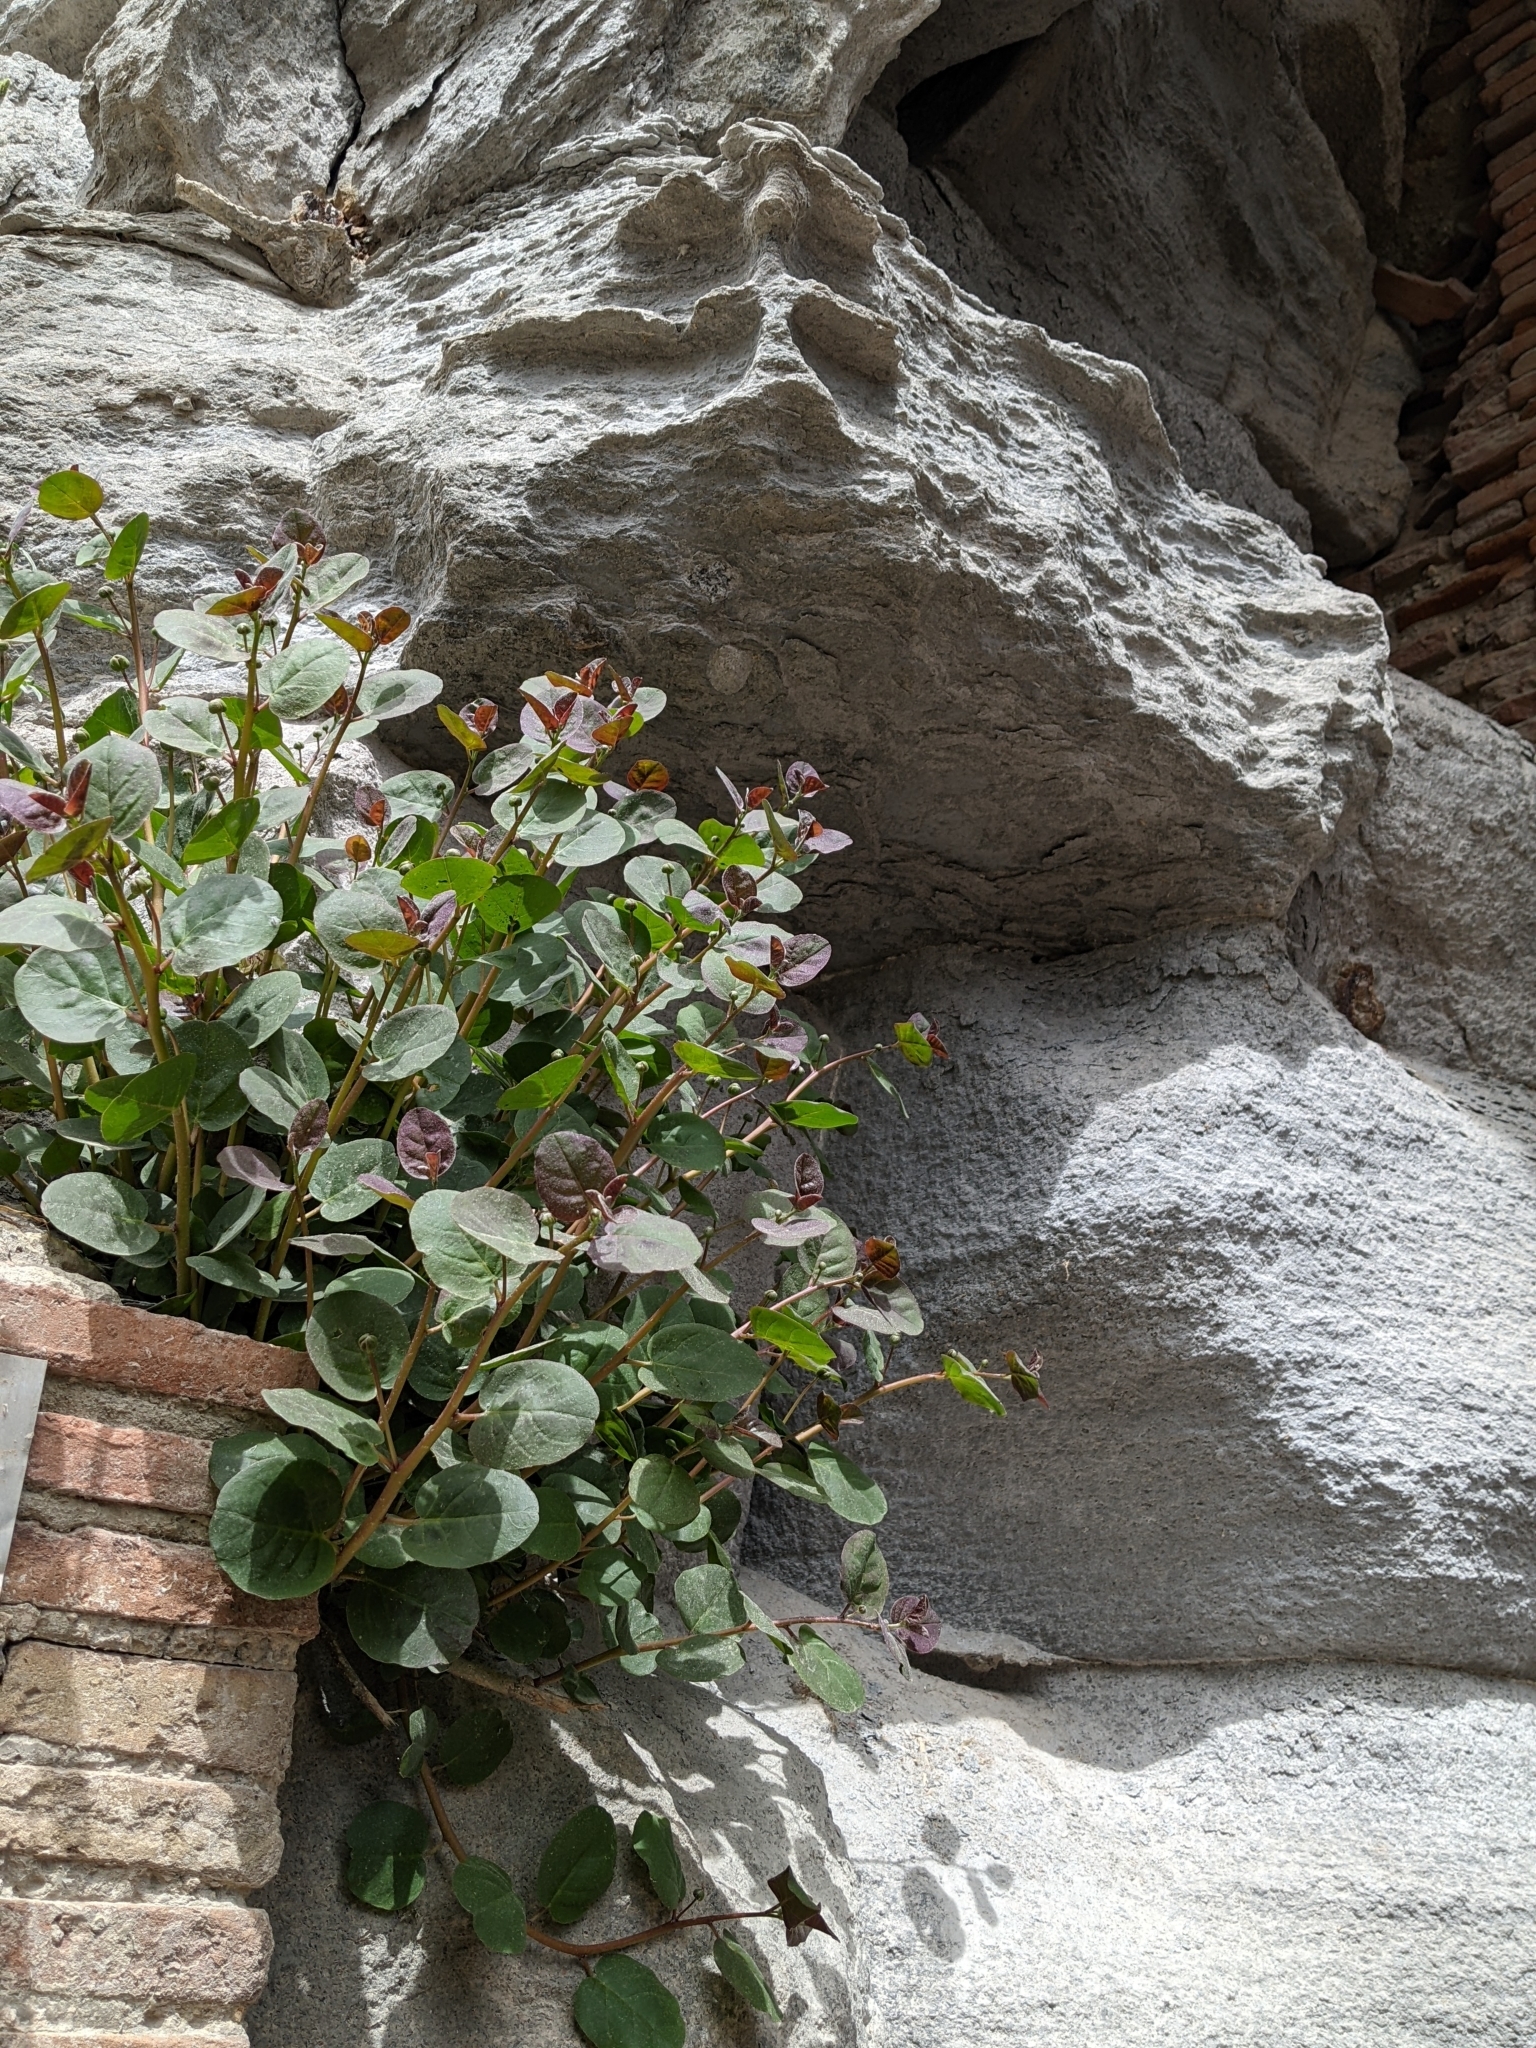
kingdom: Plantae
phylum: Tracheophyta
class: Magnoliopsida
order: Brassicales
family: Capparaceae
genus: Capparis
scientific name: Capparis orientalis
